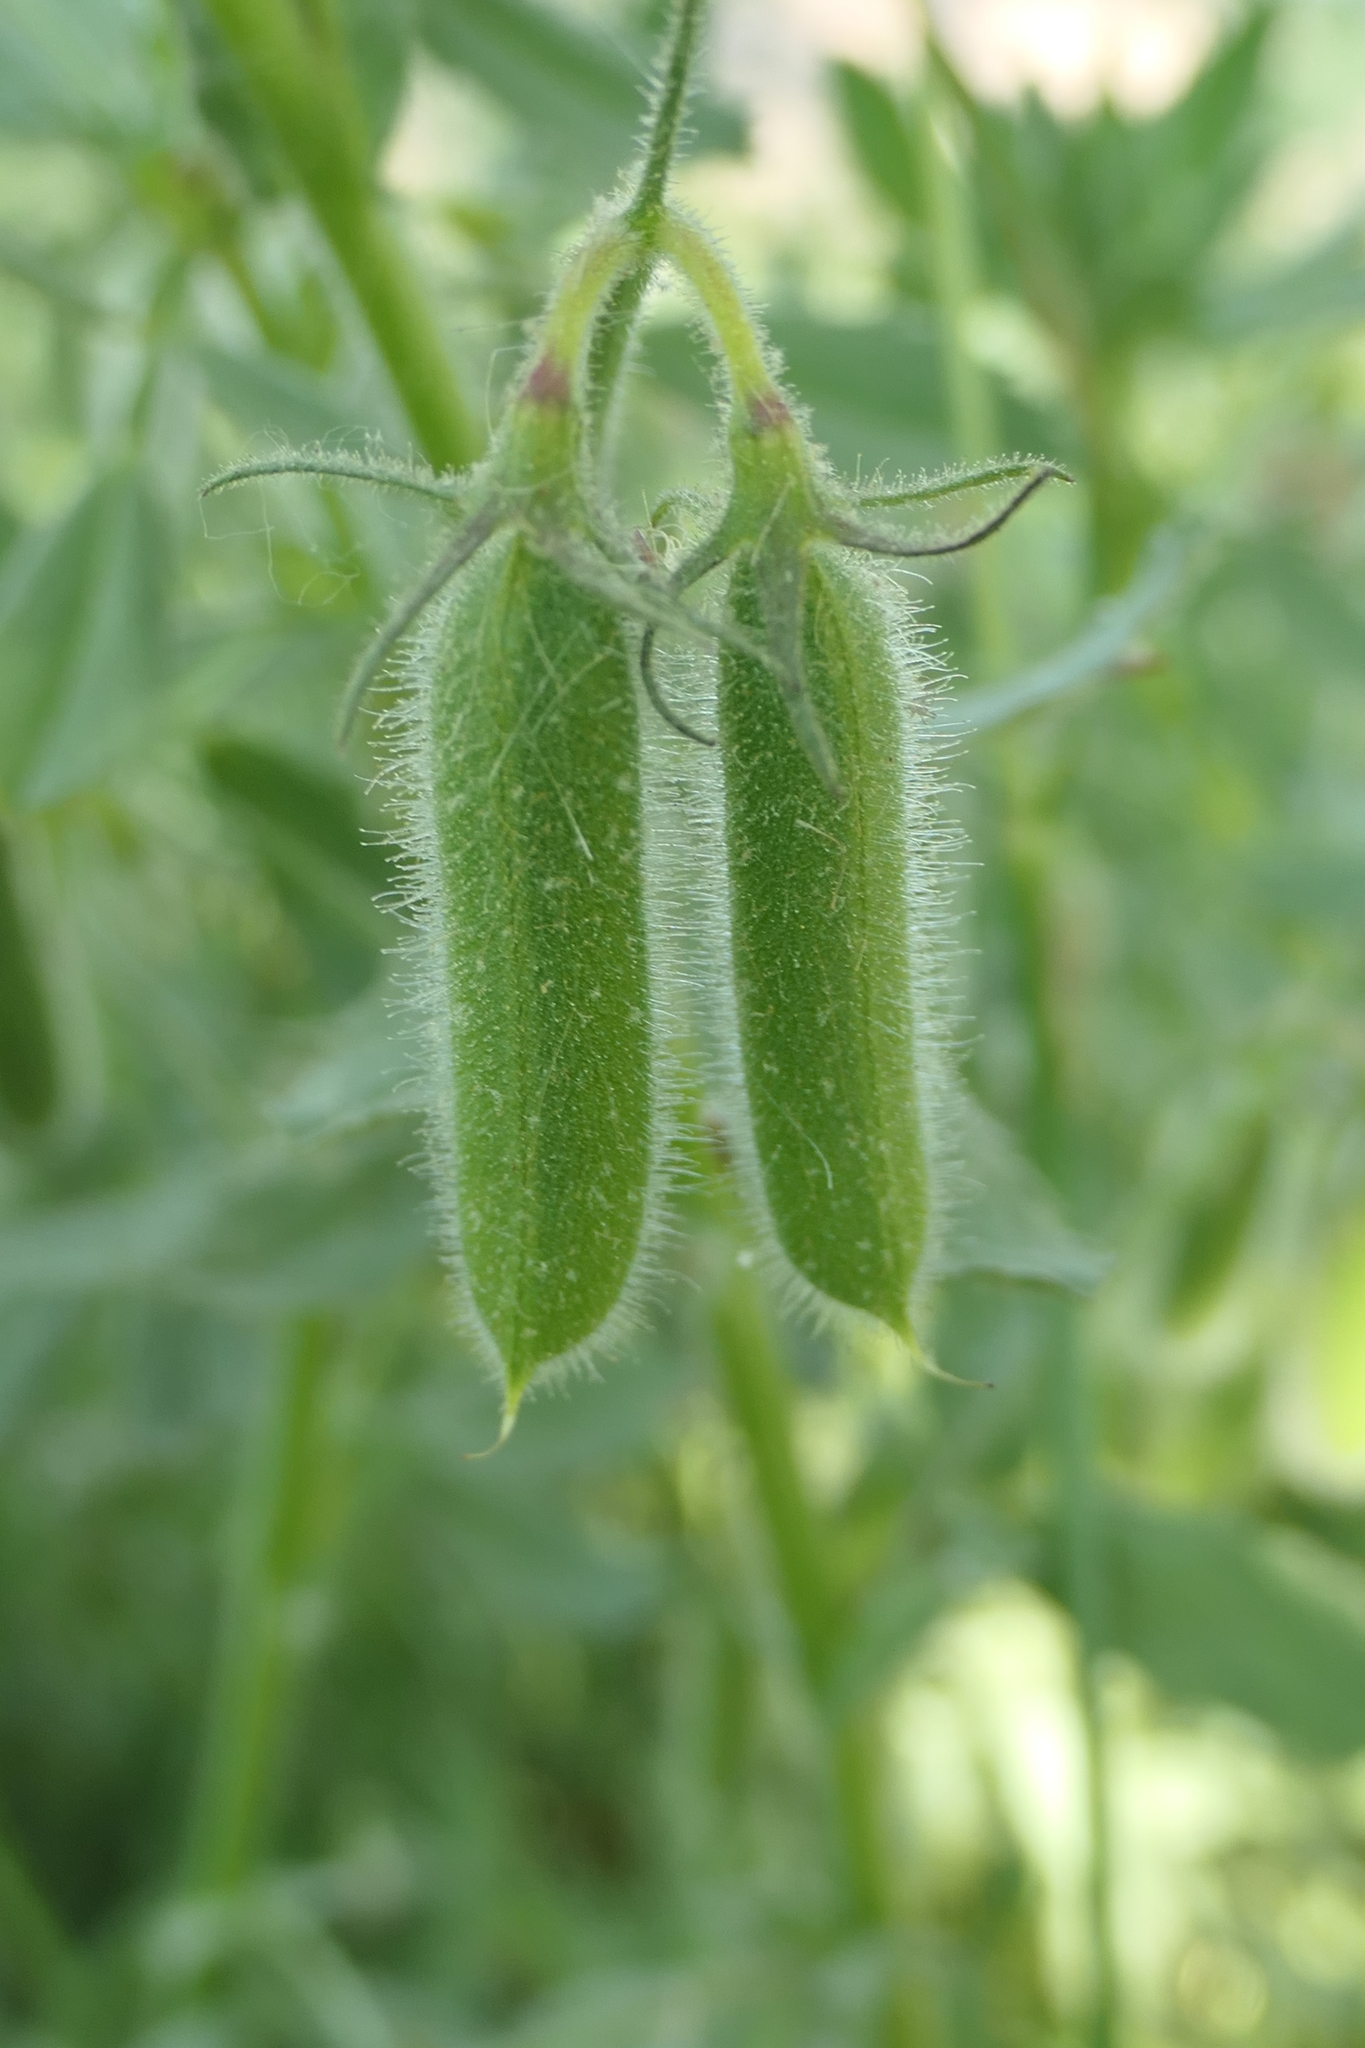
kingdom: Plantae
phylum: Tracheophyta
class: Magnoliopsida
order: Fabales
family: Fabaceae
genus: Ononis
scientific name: Ononis biflora
